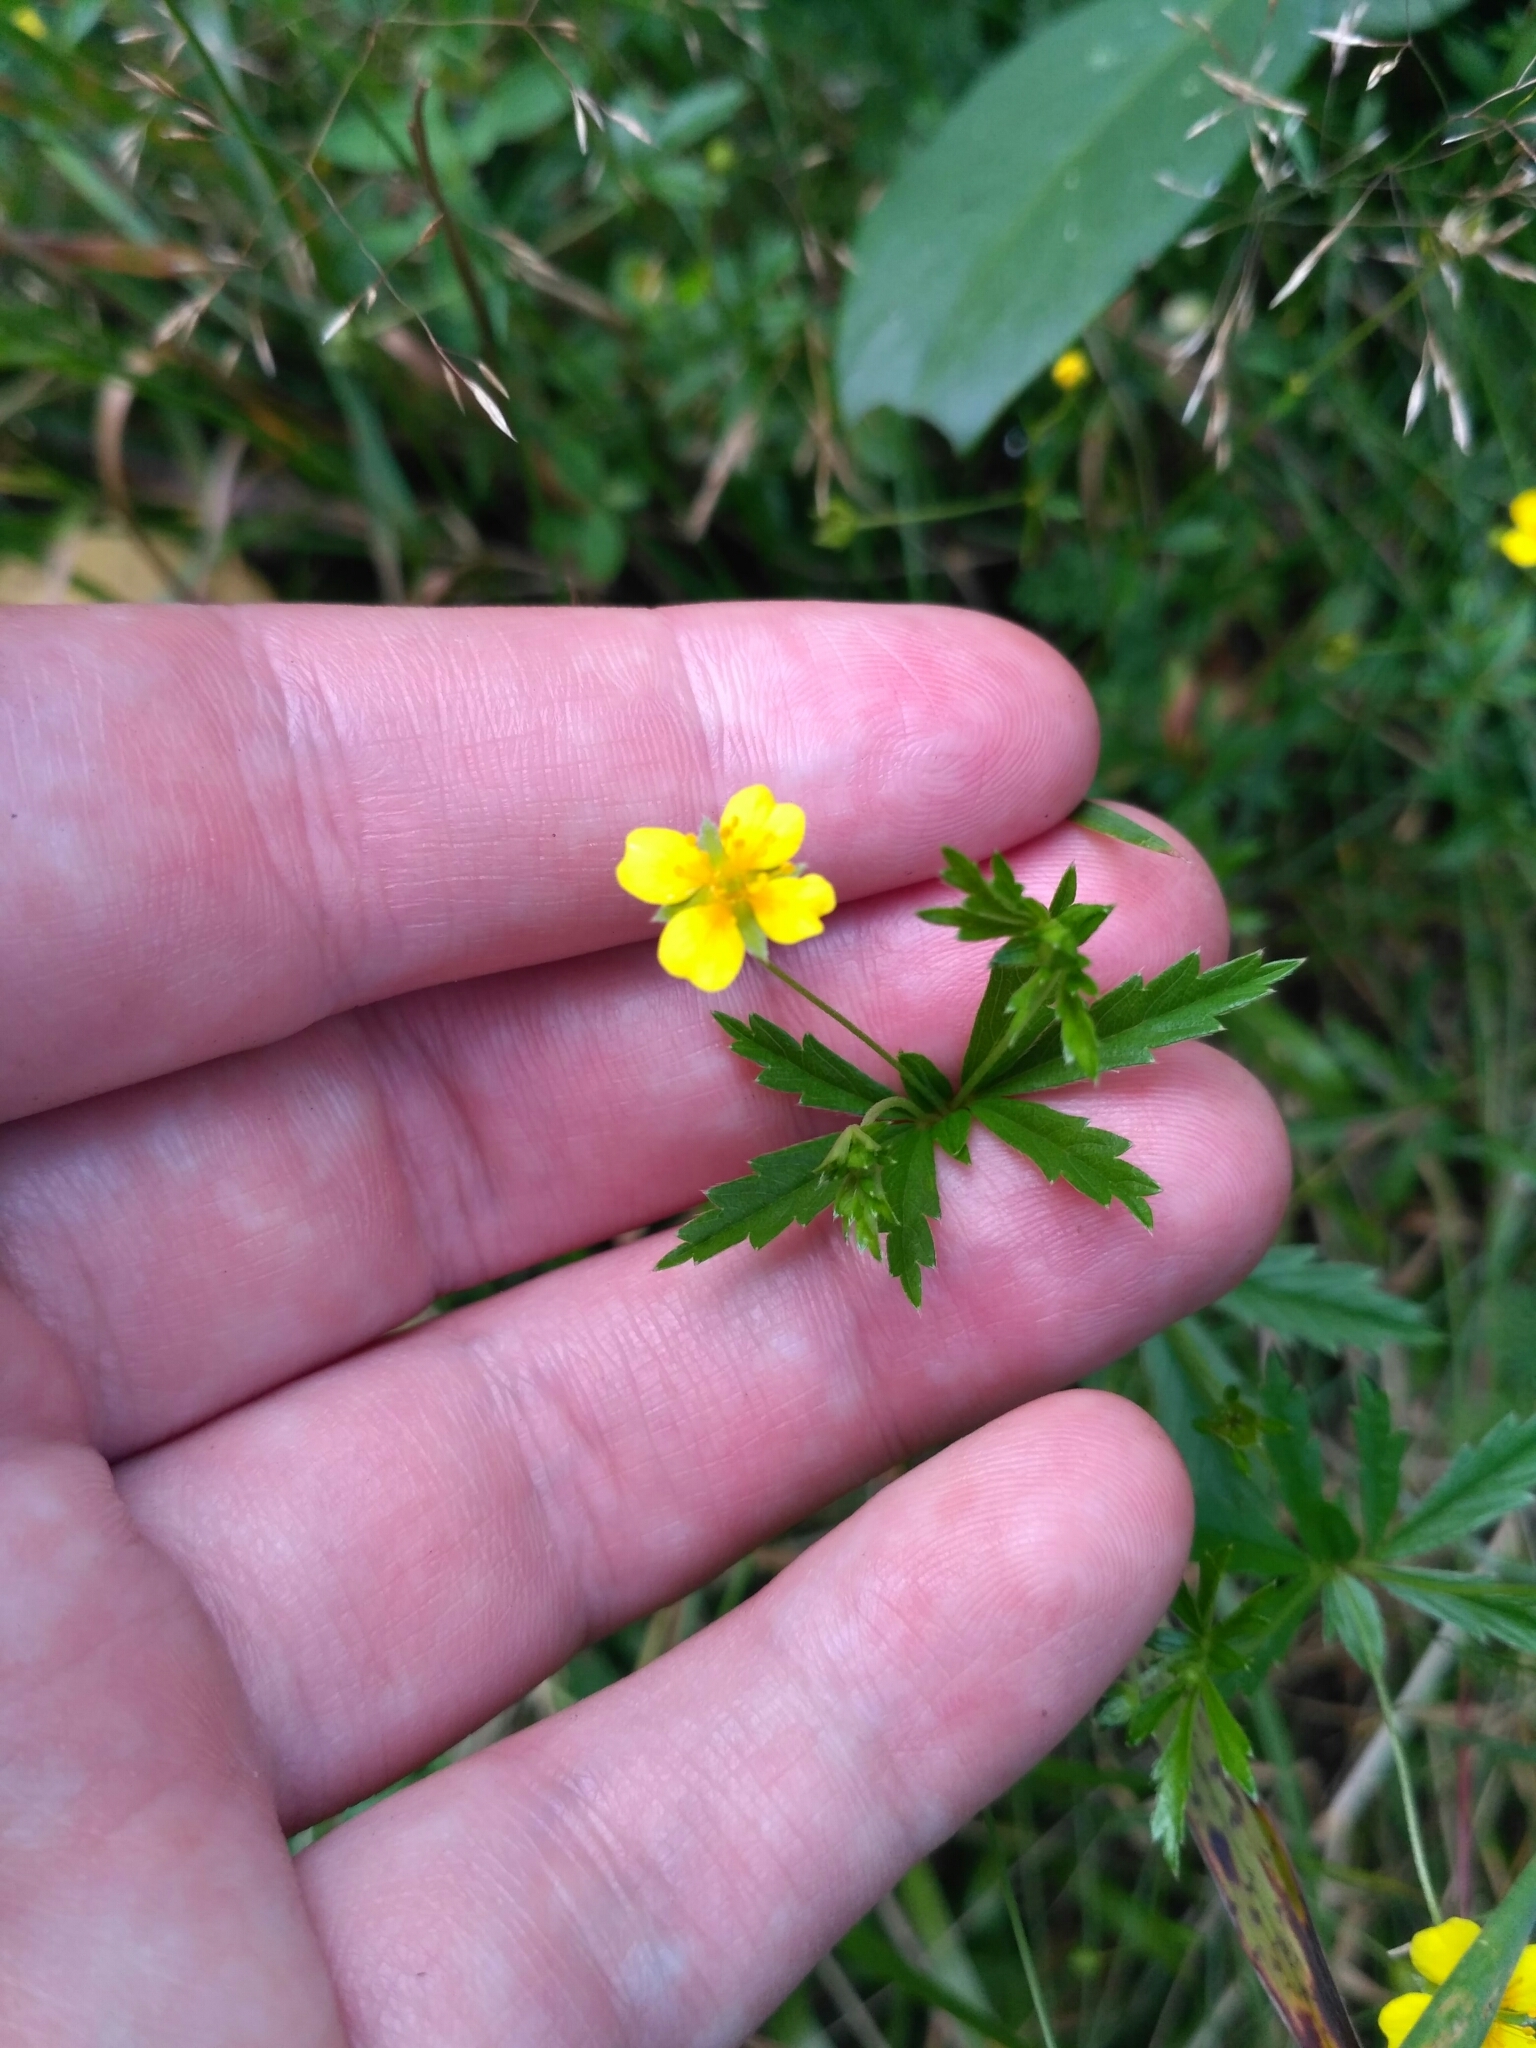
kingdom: Plantae
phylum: Tracheophyta
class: Magnoliopsida
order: Rosales
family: Rosaceae
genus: Potentilla
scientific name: Potentilla erecta
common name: Tormentil
